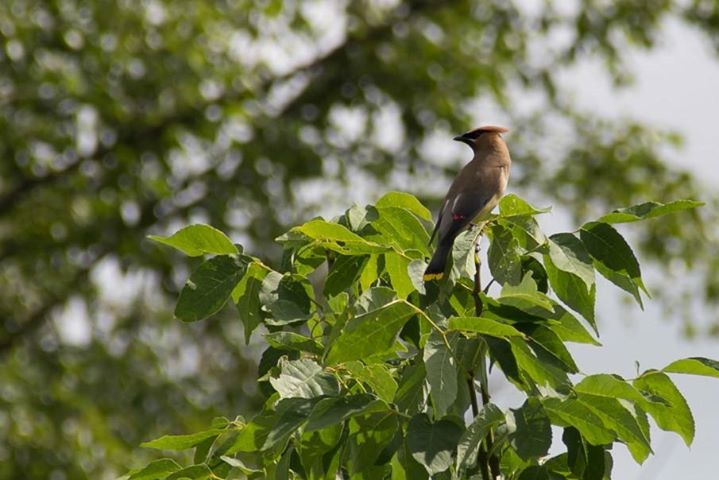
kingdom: Animalia
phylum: Chordata
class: Aves
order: Passeriformes
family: Bombycillidae
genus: Bombycilla
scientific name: Bombycilla cedrorum
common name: Cedar waxwing
